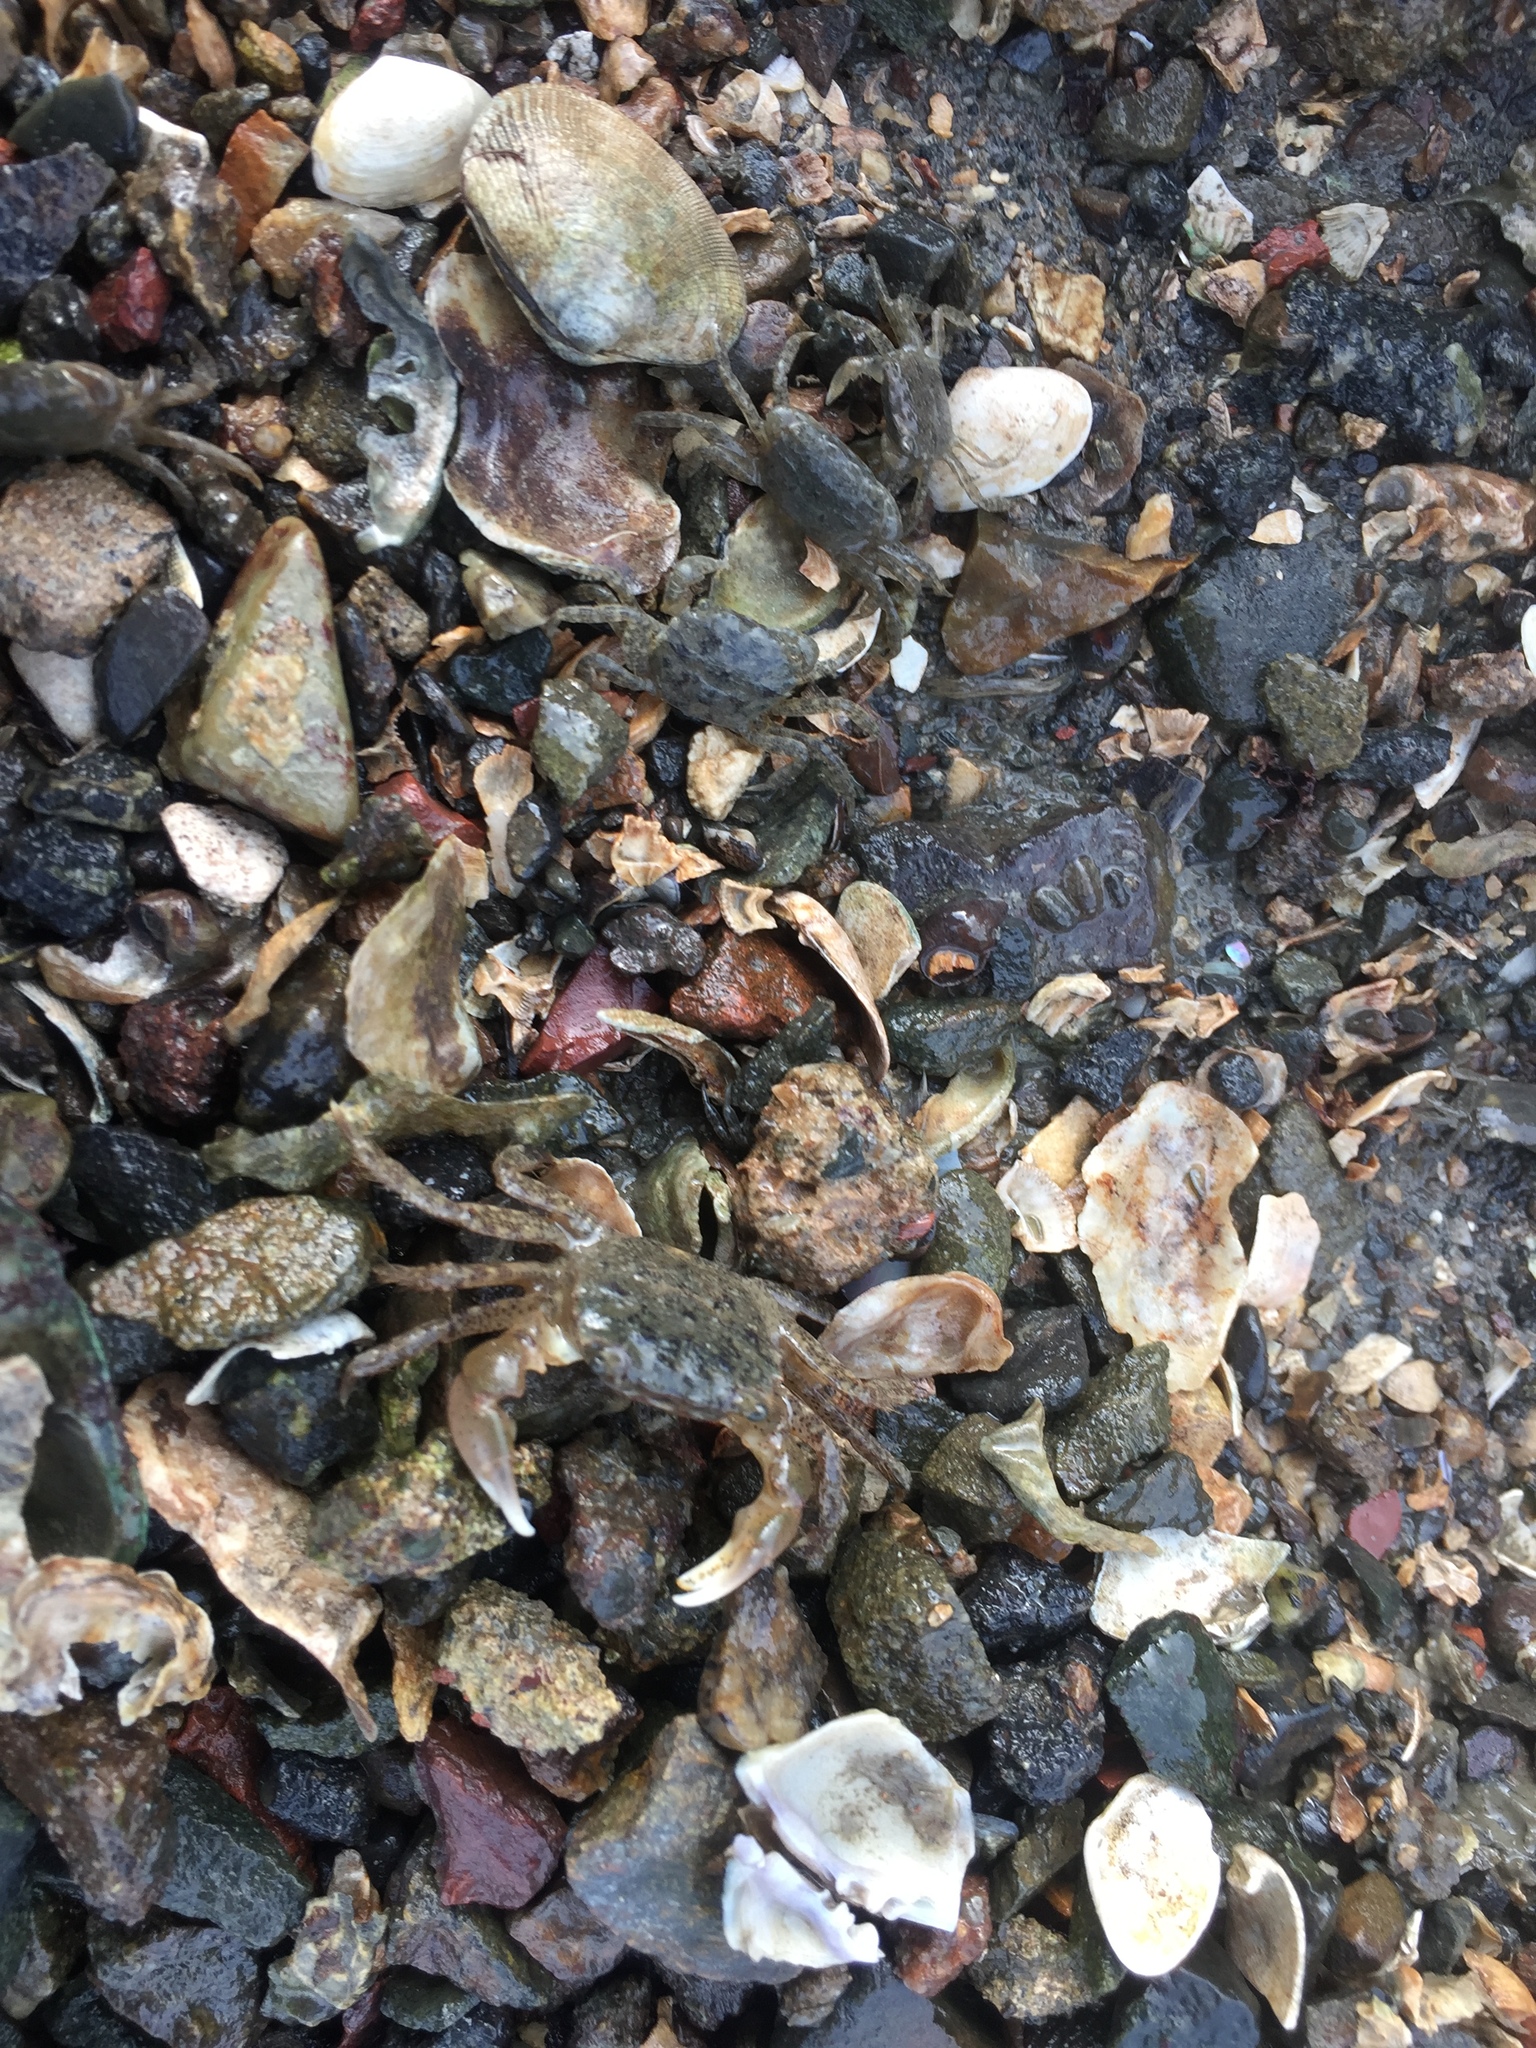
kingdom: Animalia
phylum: Arthropoda
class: Malacostraca
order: Decapoda
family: Varunidae
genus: Hemigrapsus
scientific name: Hemigrapsus oregonensis
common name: Yellow shore crab
